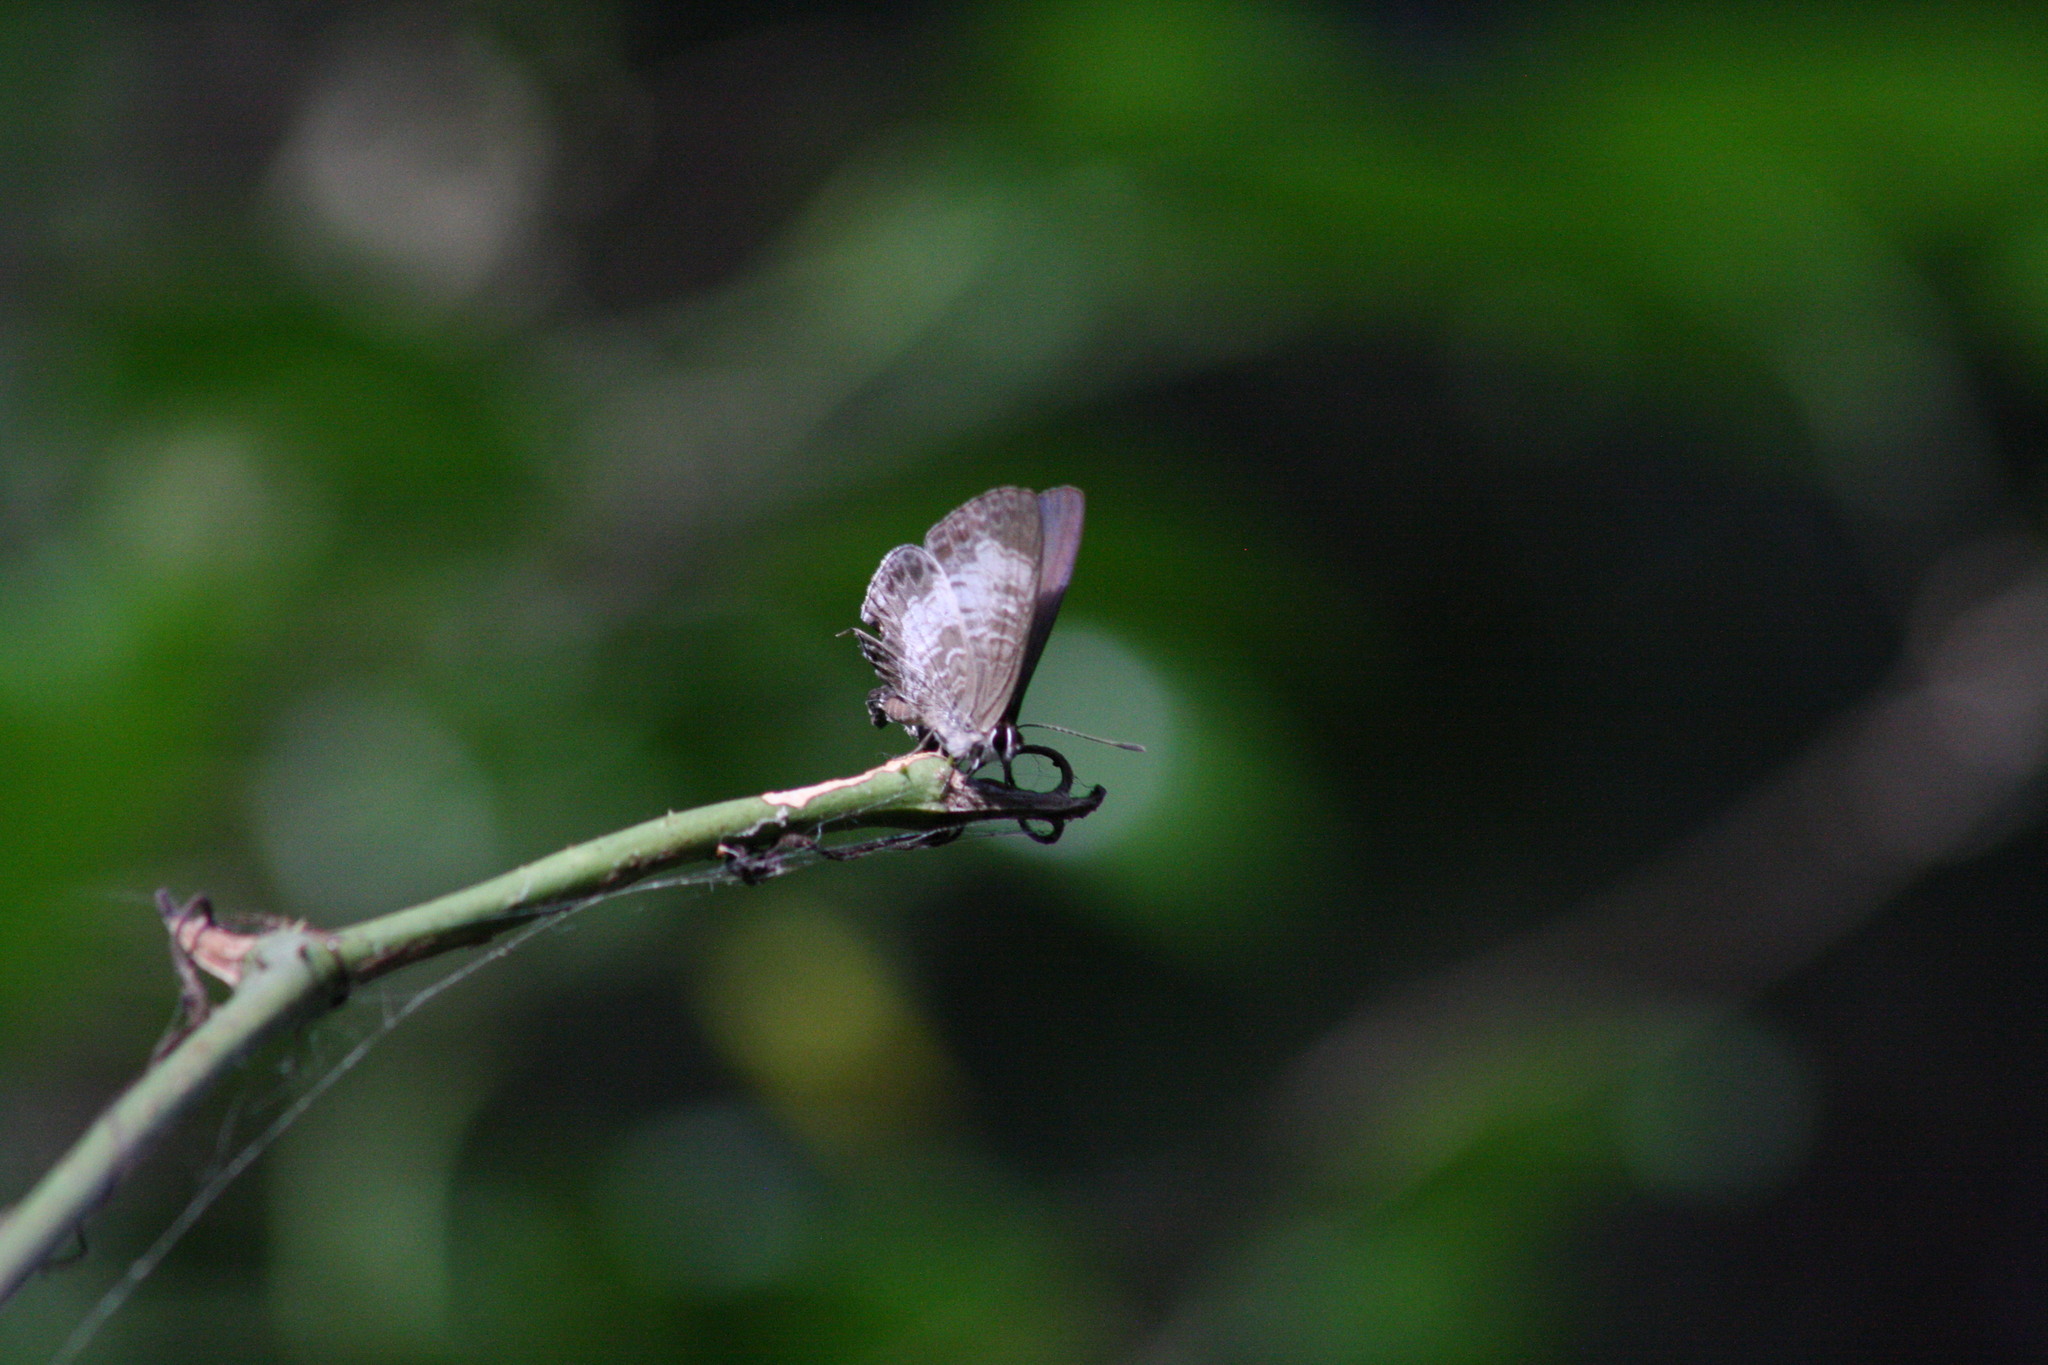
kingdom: Animalia
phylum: Arthropoda
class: Insecta
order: Lepidoptera
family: Lycaenidae
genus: Nacaduba
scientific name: Nacaduba kurava
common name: Transparent 6-line blue
